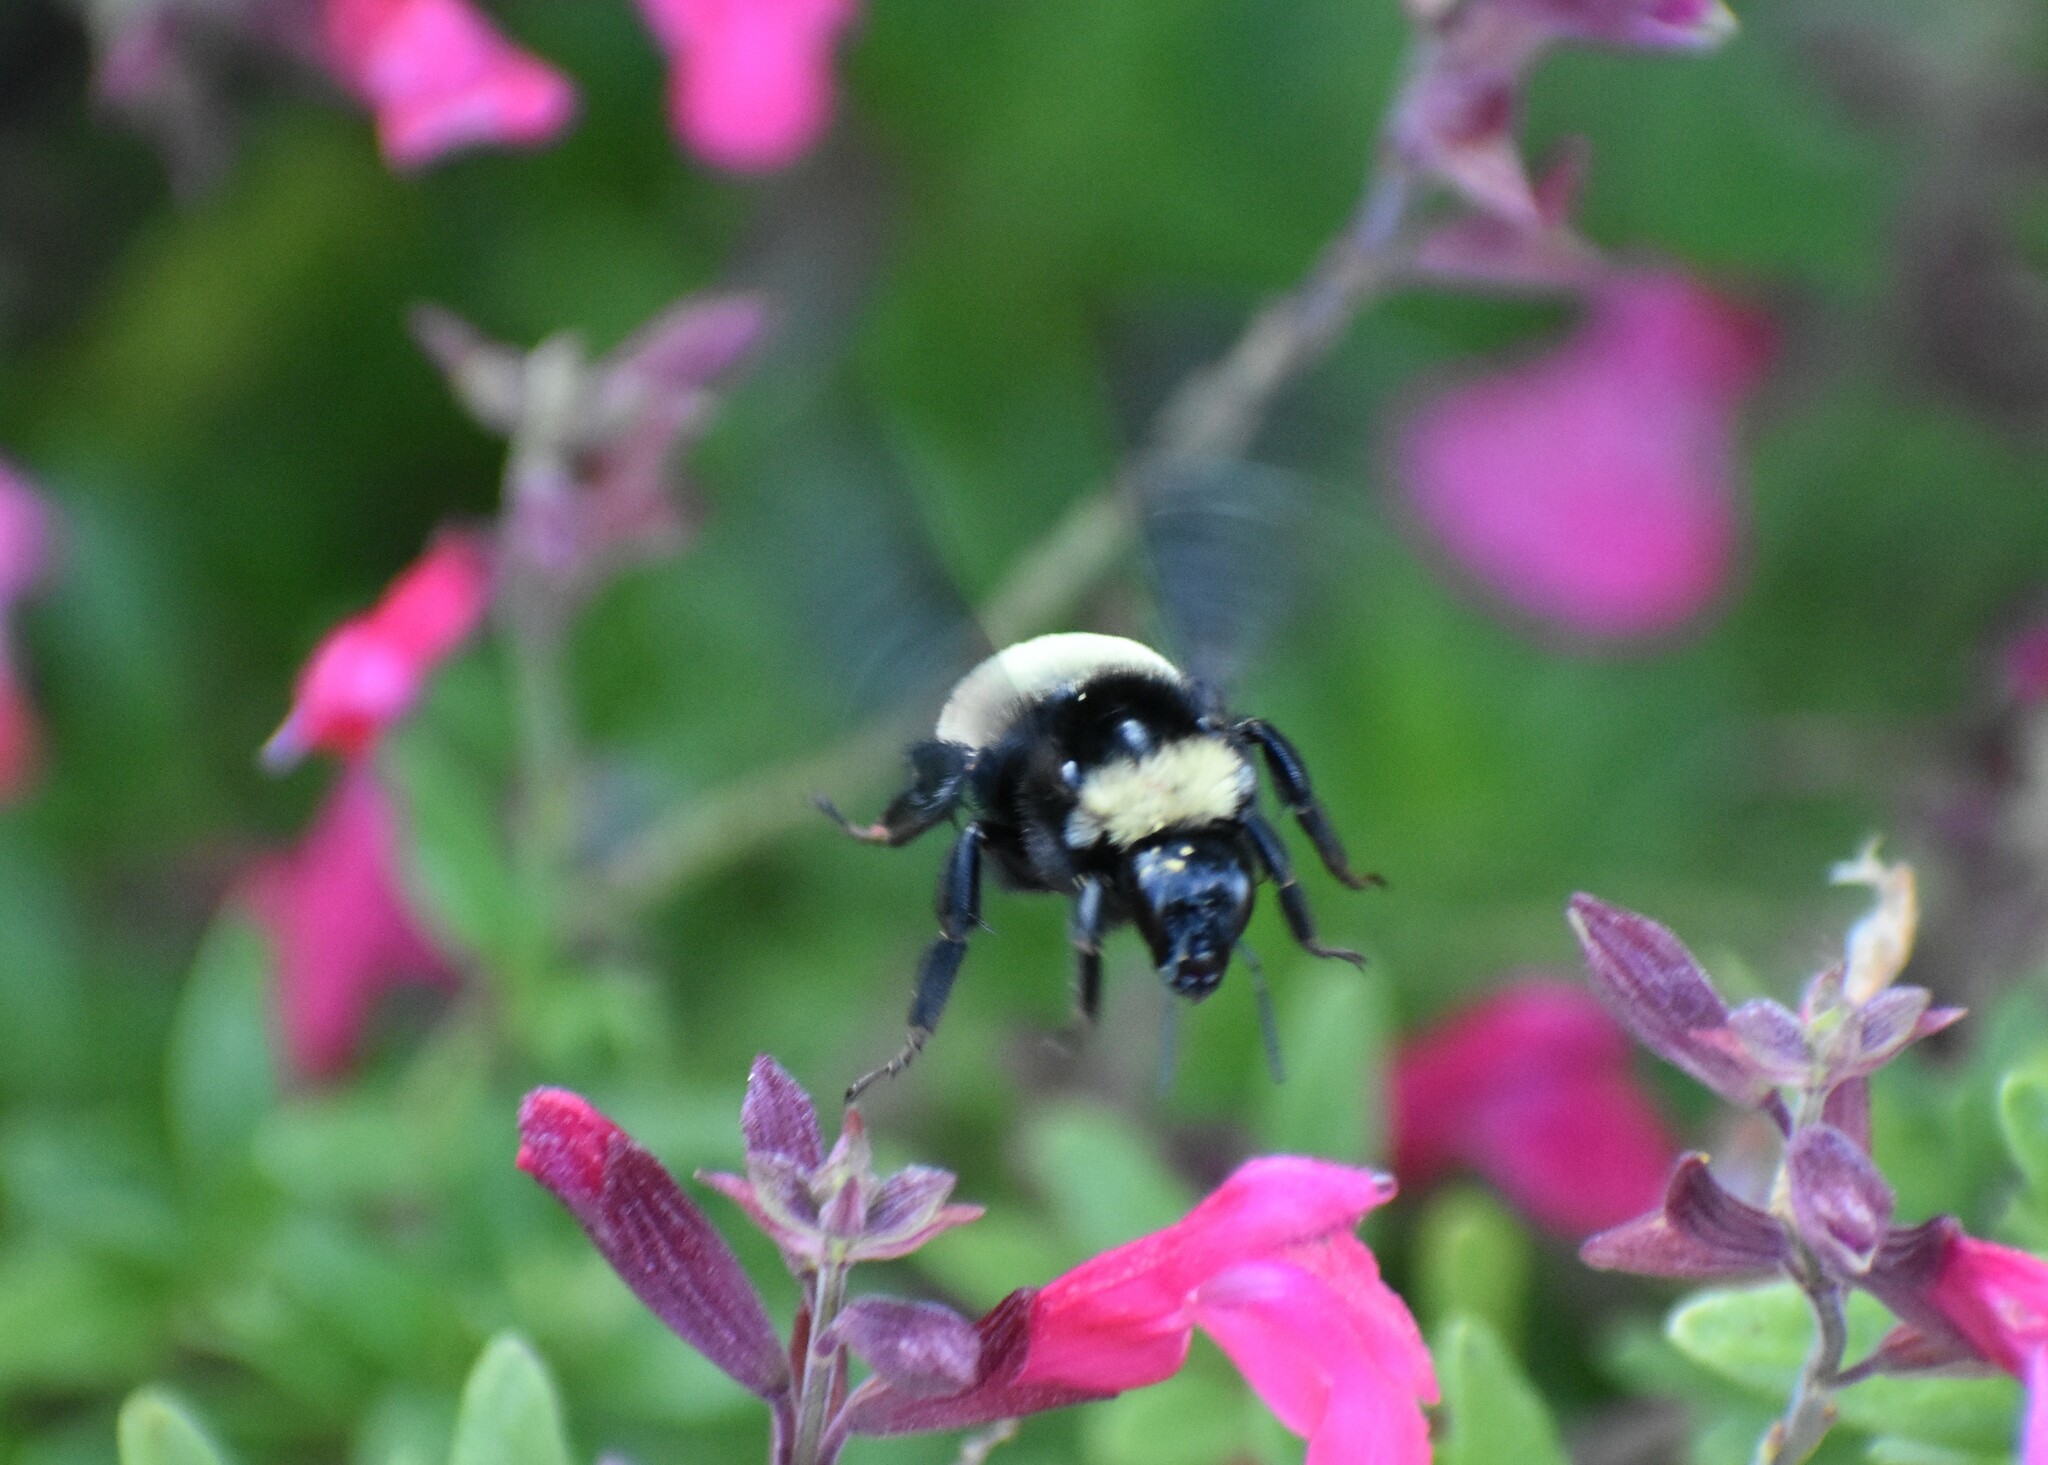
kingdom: Animalia
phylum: Arthropoda
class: Insecta
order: Hymenoptera
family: Apidae
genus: Bombus
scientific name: Bombus pensylvanicus
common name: Bumble bee
